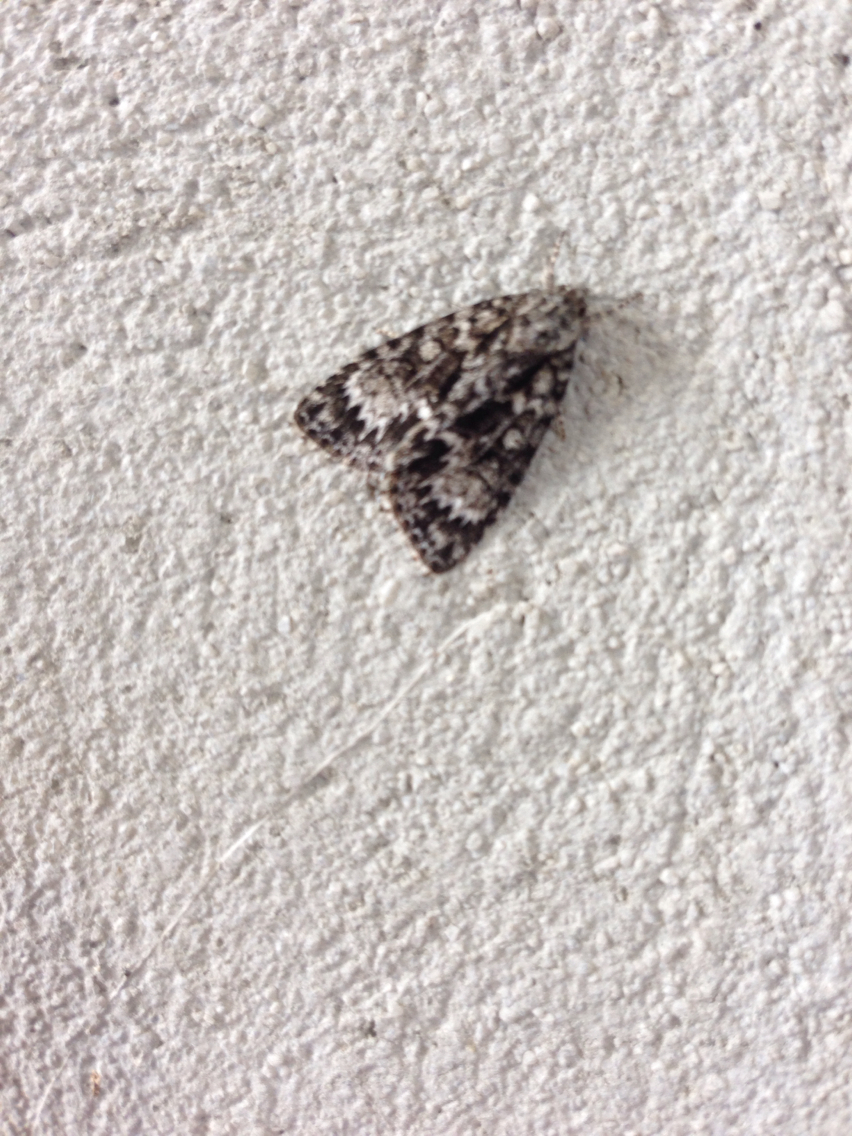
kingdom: Animalia
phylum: Arthropoda
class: Insecta
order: Lepidoptera
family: Noctuidae
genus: Acronicta
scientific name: Acronicta fragilis
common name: Fragile dagger
